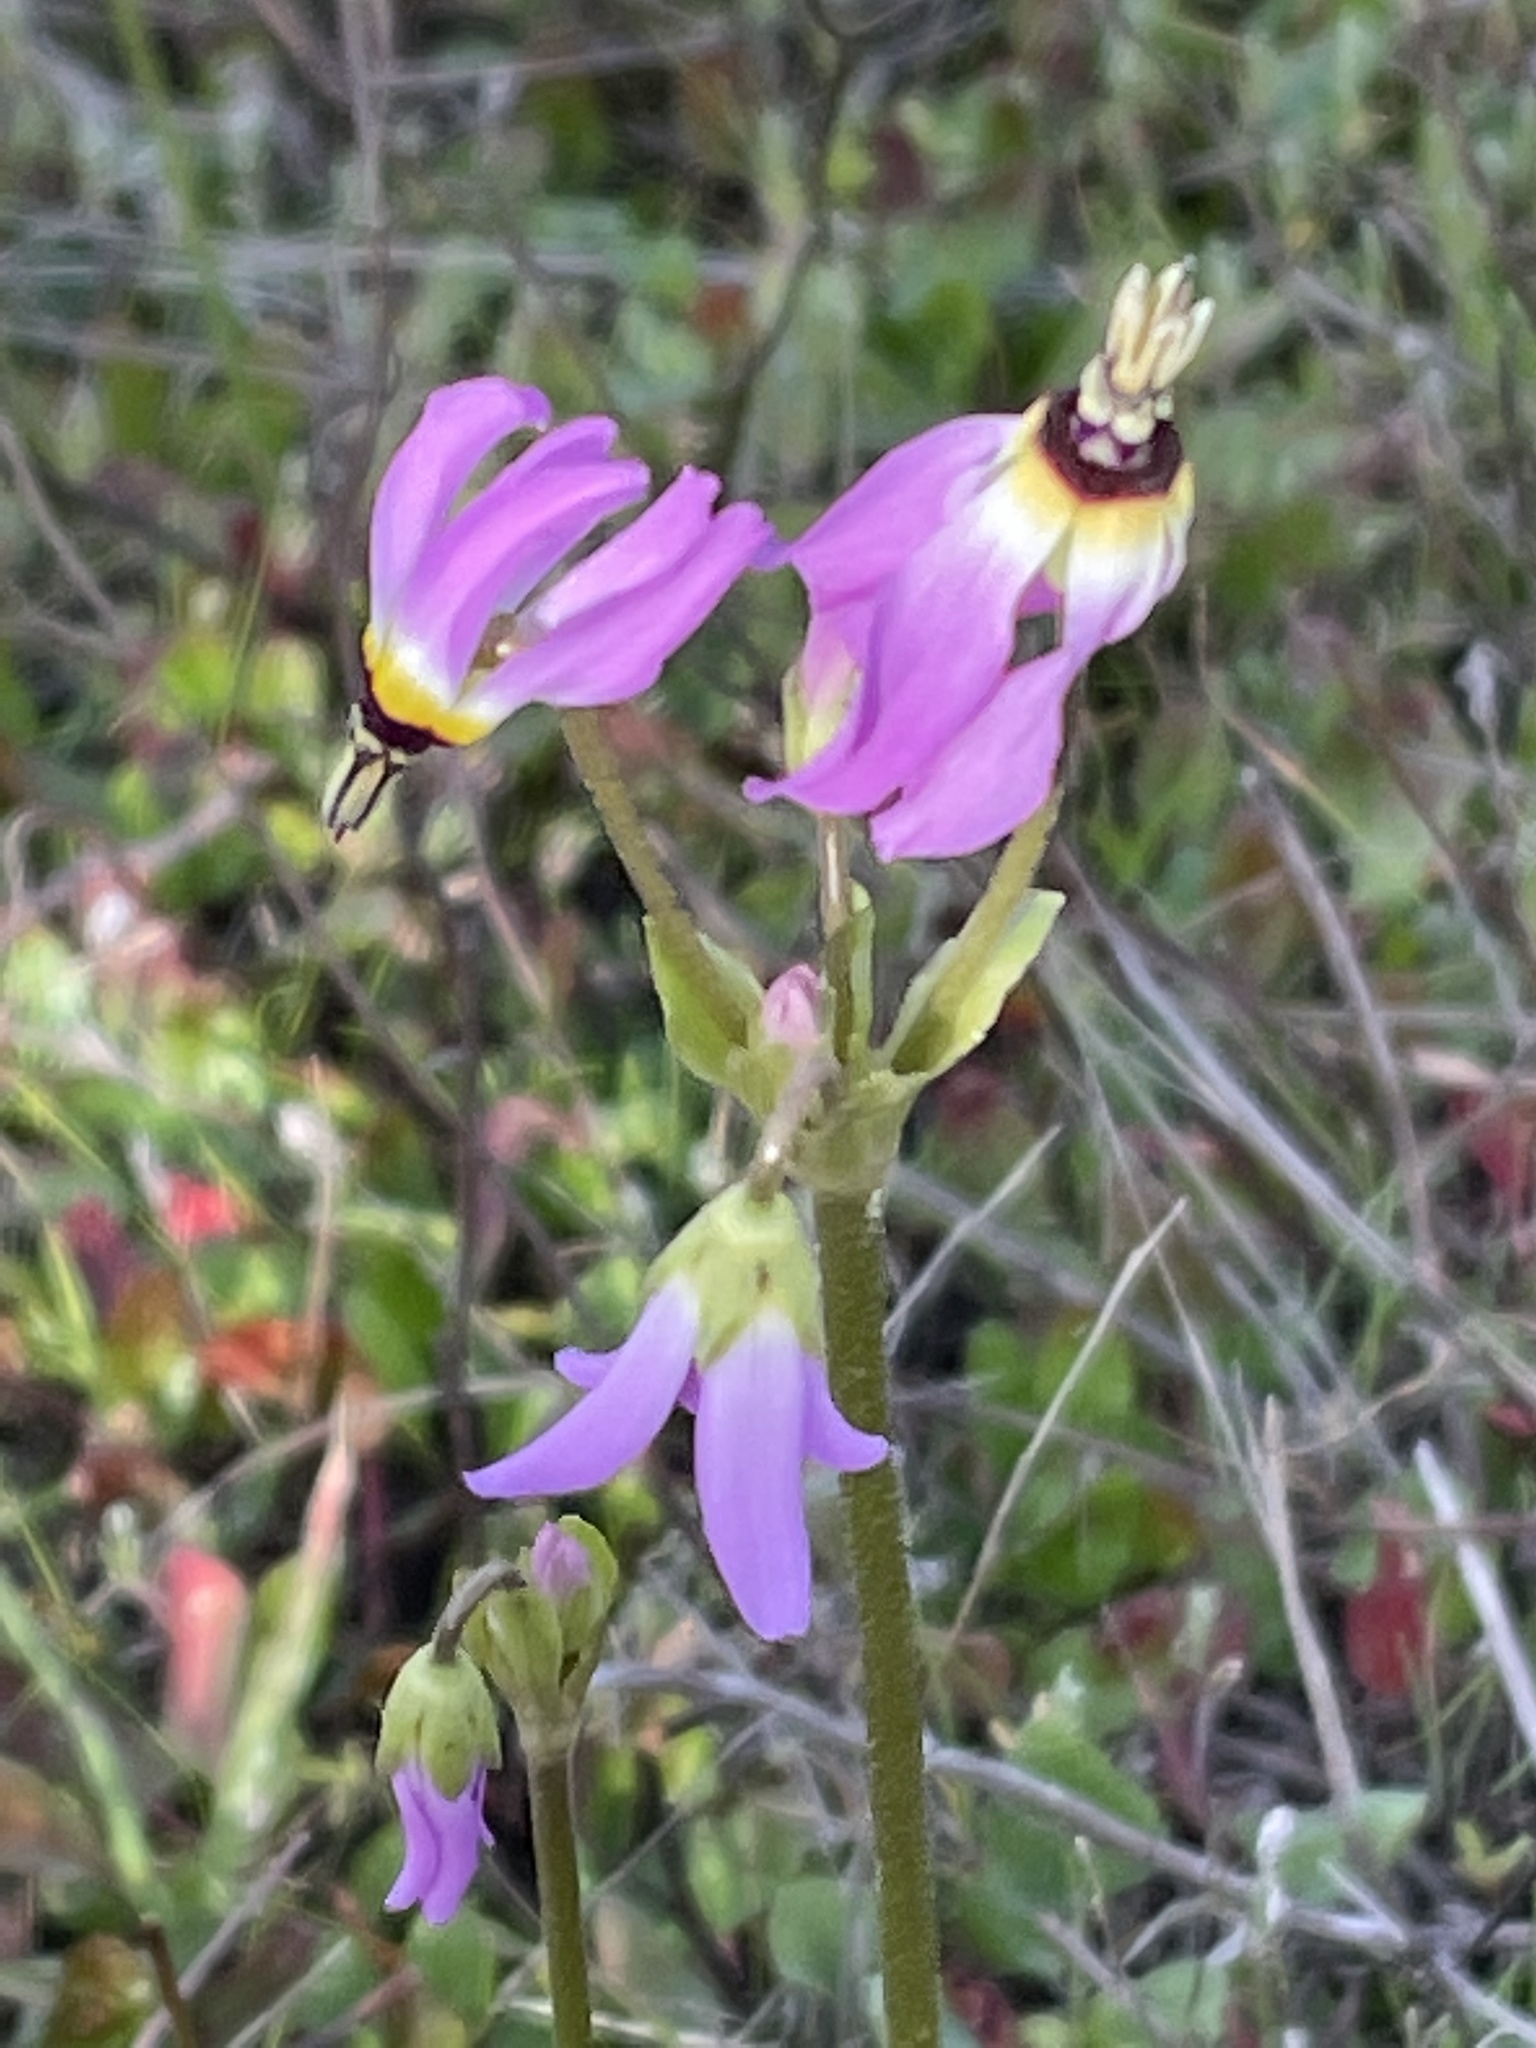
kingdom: Plantae
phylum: Tracheophyta
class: Magnoliopsida
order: Ericales
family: Primulaceae
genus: Dodecatheon
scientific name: Dodecatheon clevelandii
